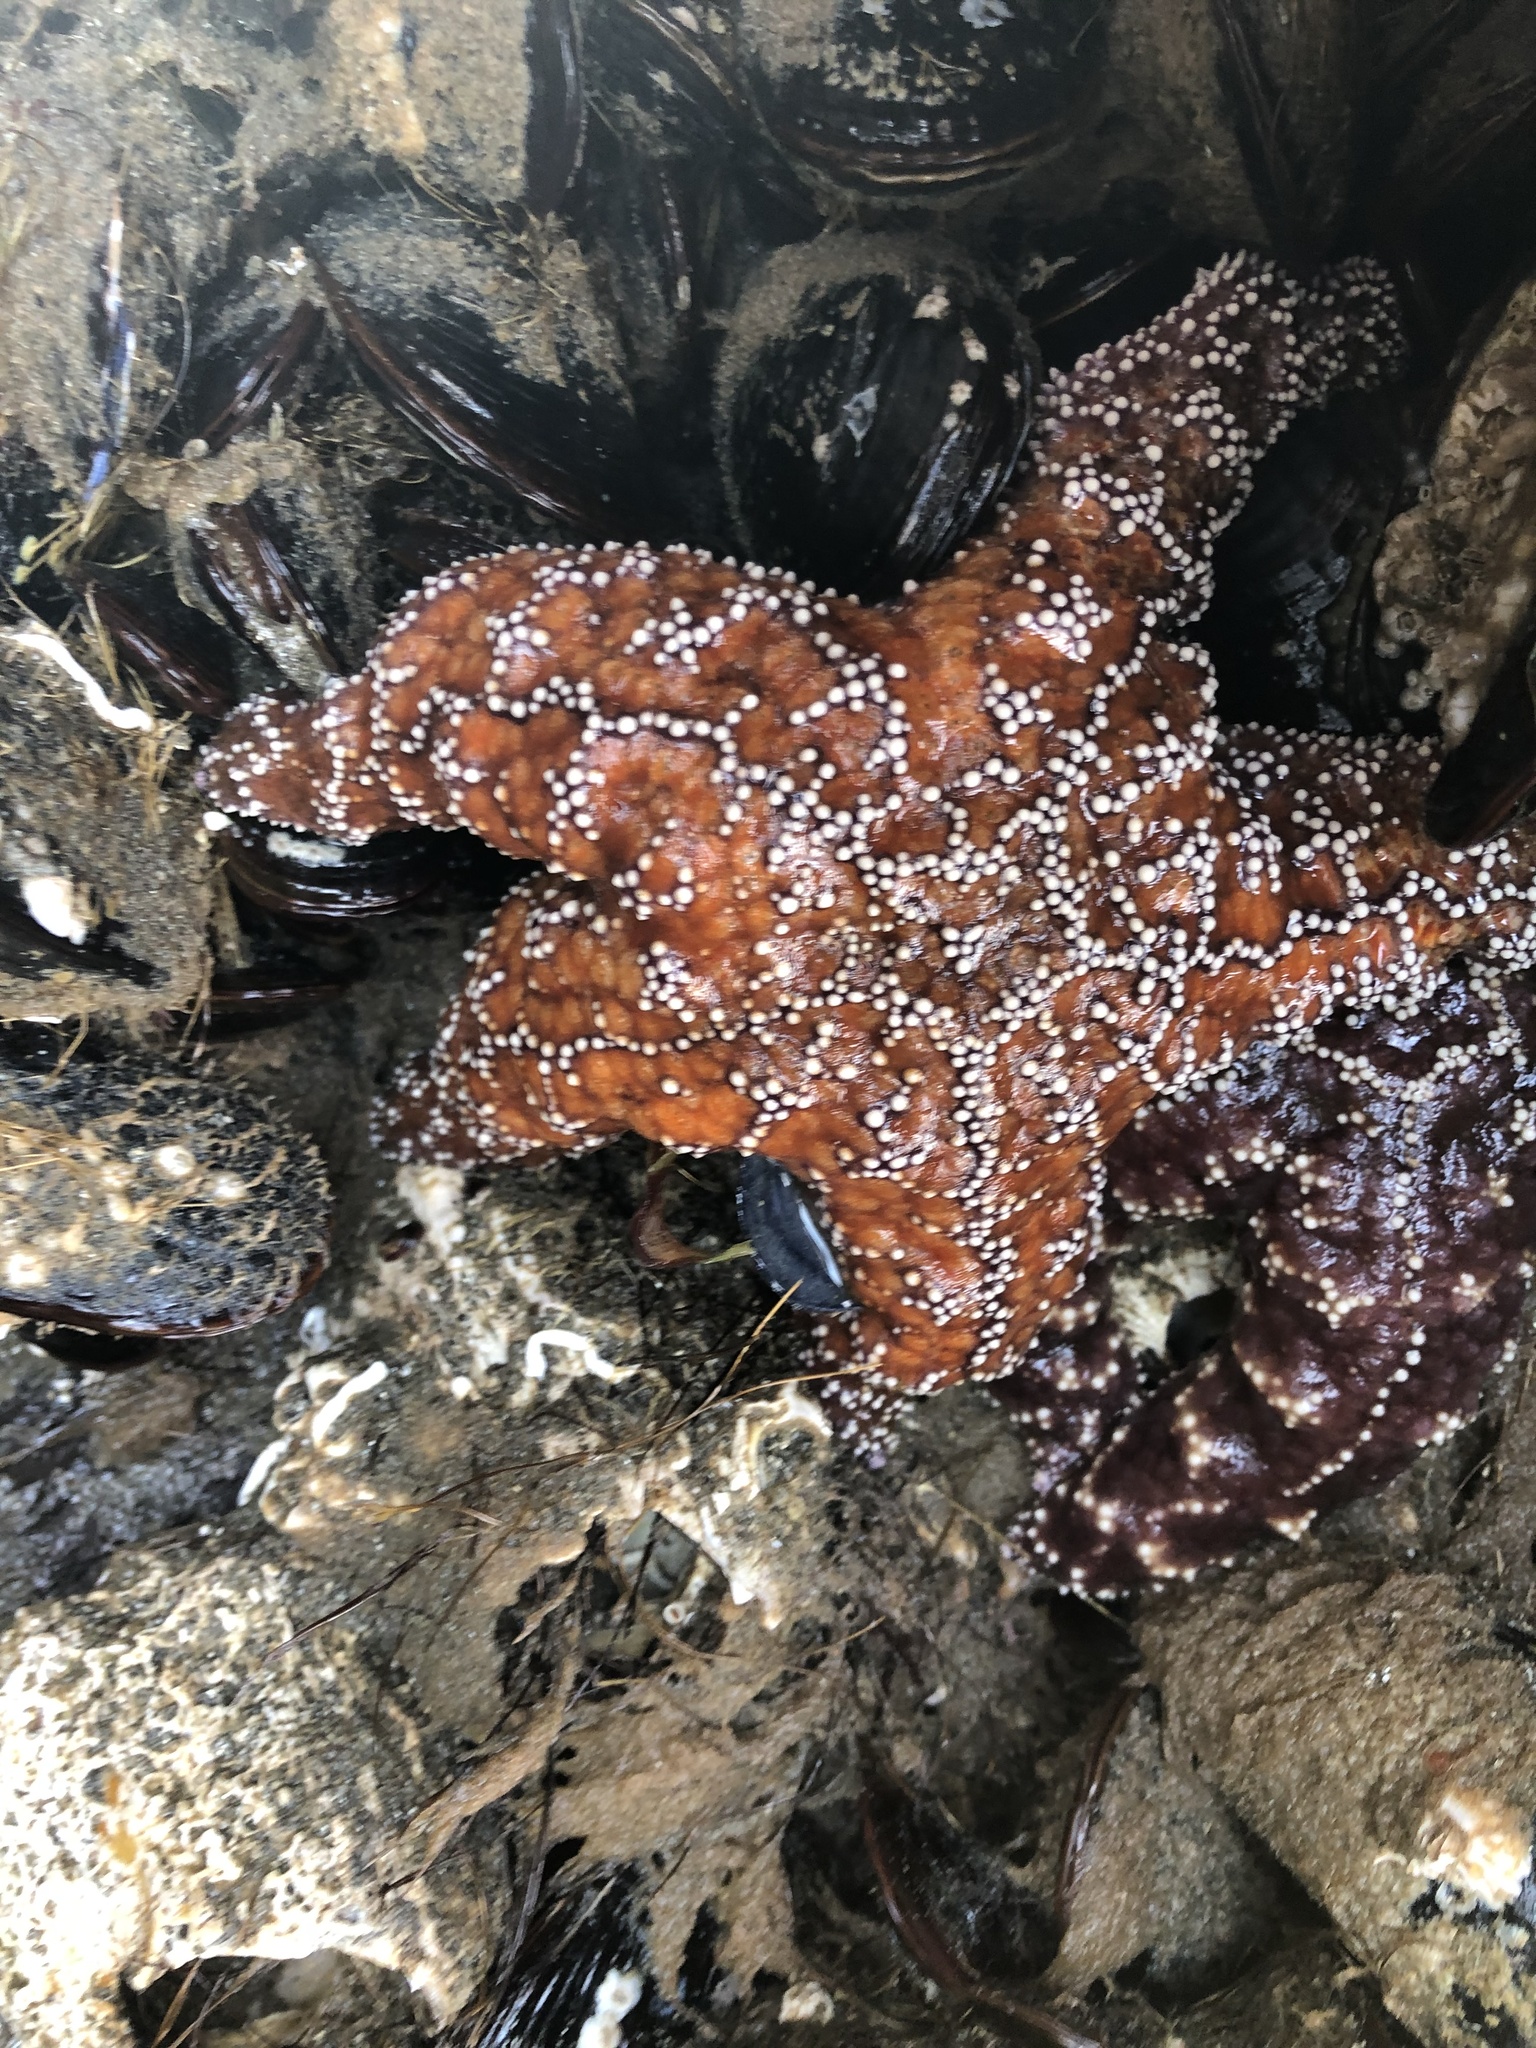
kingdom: Animalia
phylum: Echinodermata
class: Asteroidea
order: Forcipulatida
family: Asteriidae
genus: Pisaster
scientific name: Pisaster ochraceus
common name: Ochre stars
